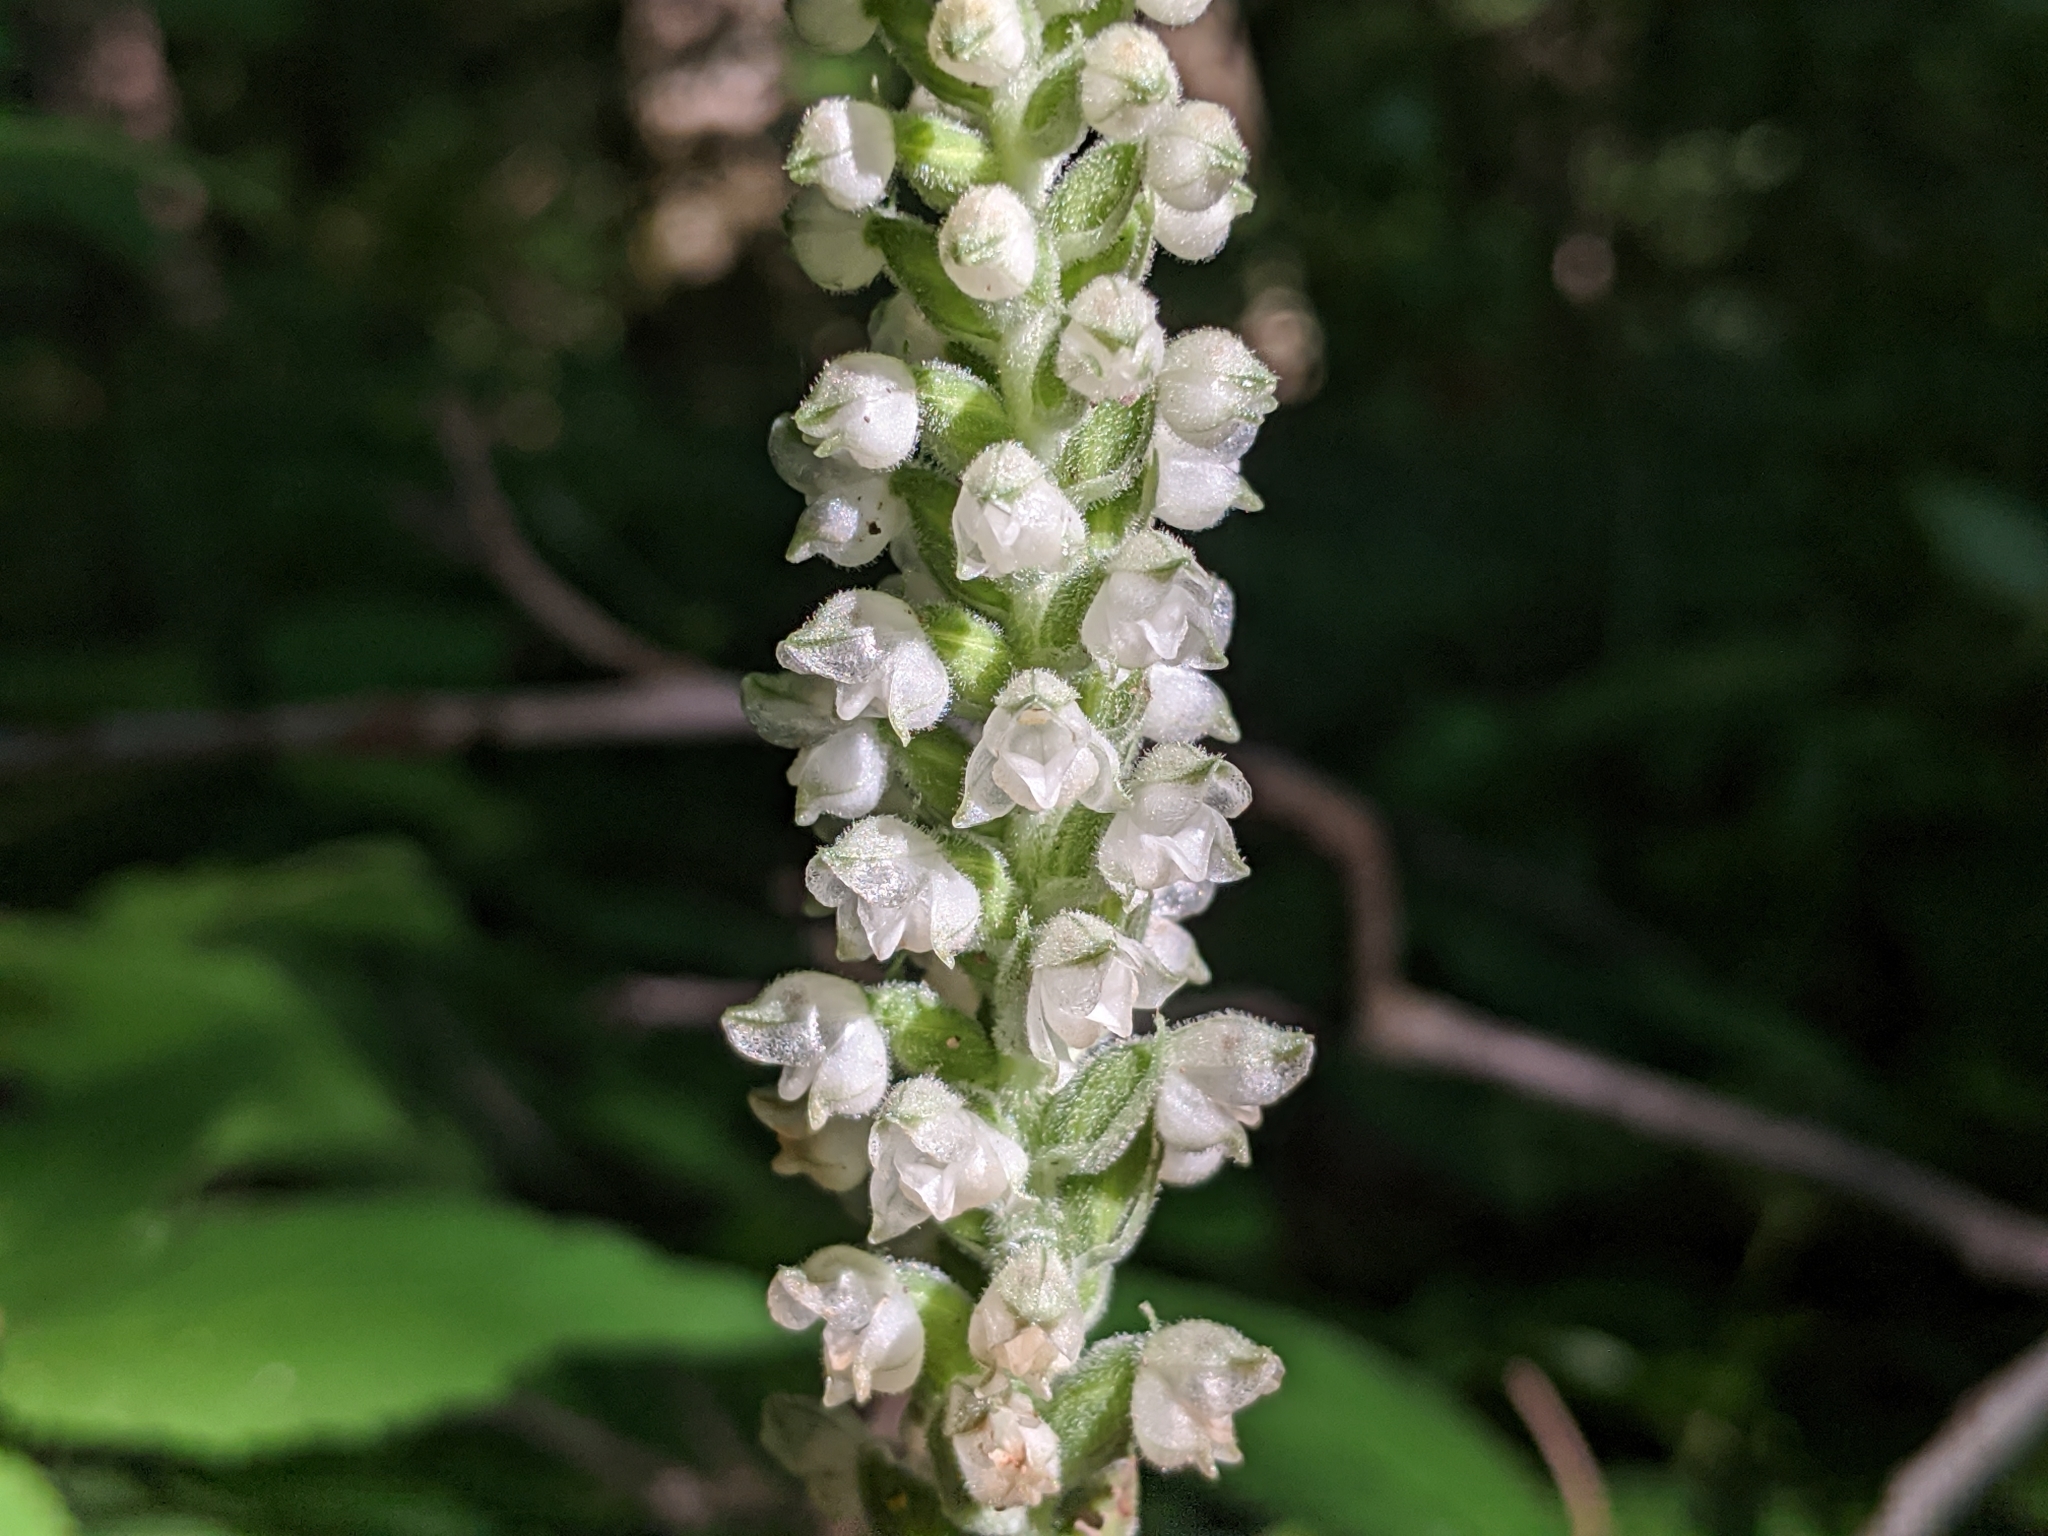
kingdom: Plantae
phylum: Tracheophyta
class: Liliopsida
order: Asparagales
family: Orchidaceae
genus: Goodyera
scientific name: Goodyera pubescens
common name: Downy rattlesnake-plantain
